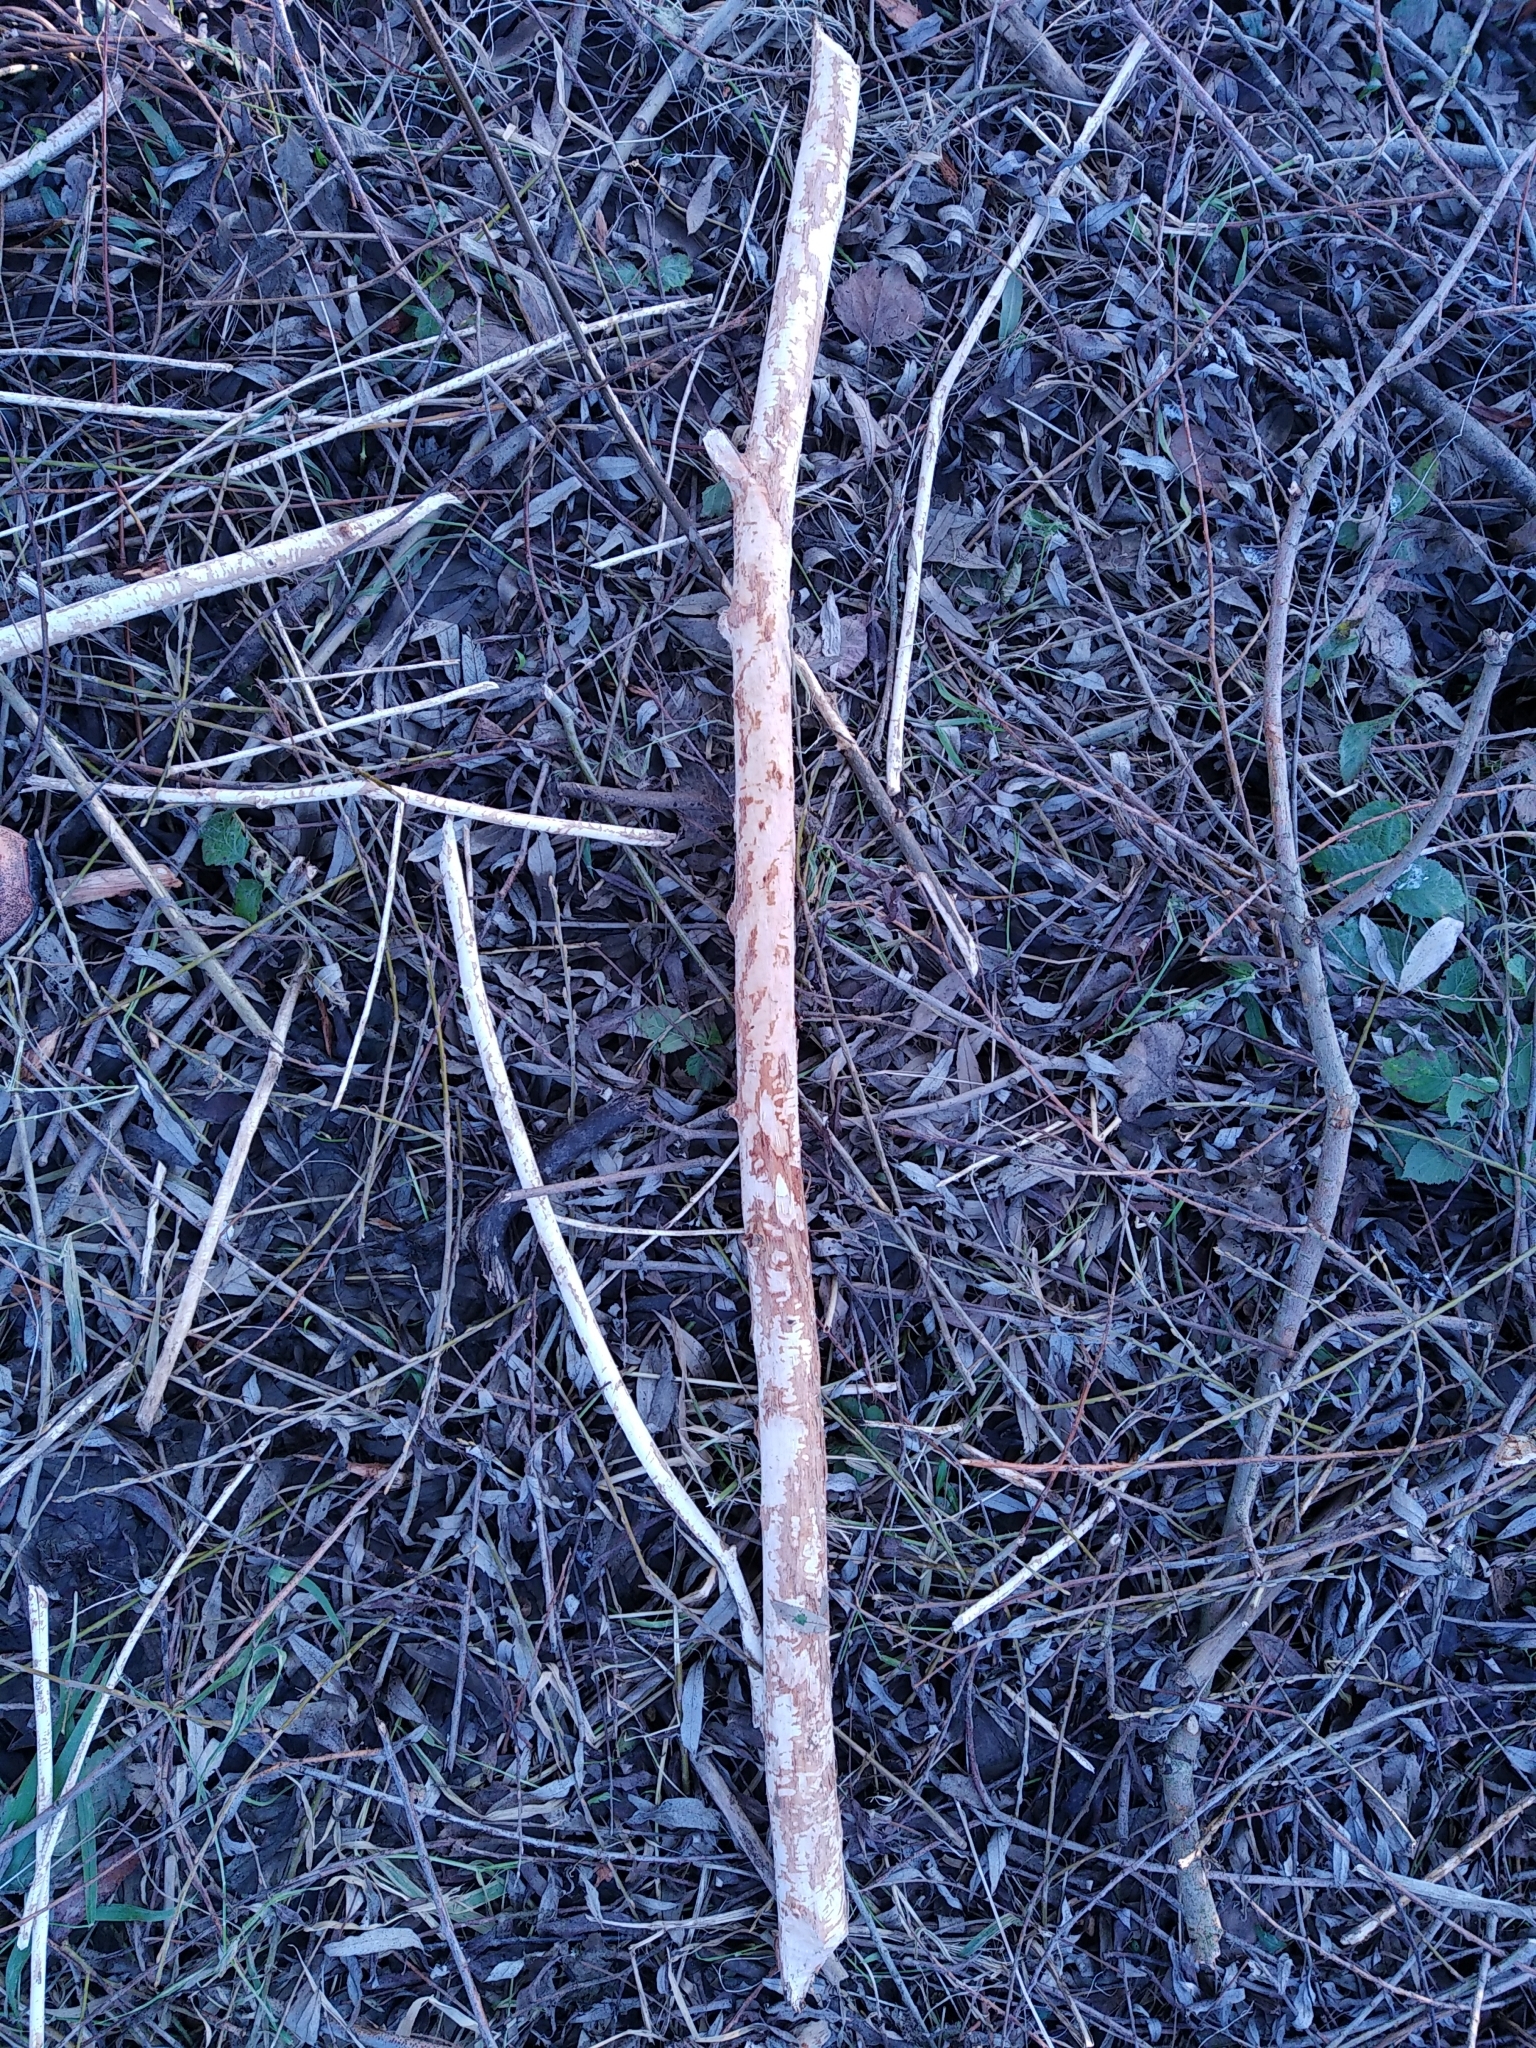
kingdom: Animalia
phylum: Chordata
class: Mammalia
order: Rodentia
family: Castoridae
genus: Castor
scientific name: Castor fiber
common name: Eurasian beaver
